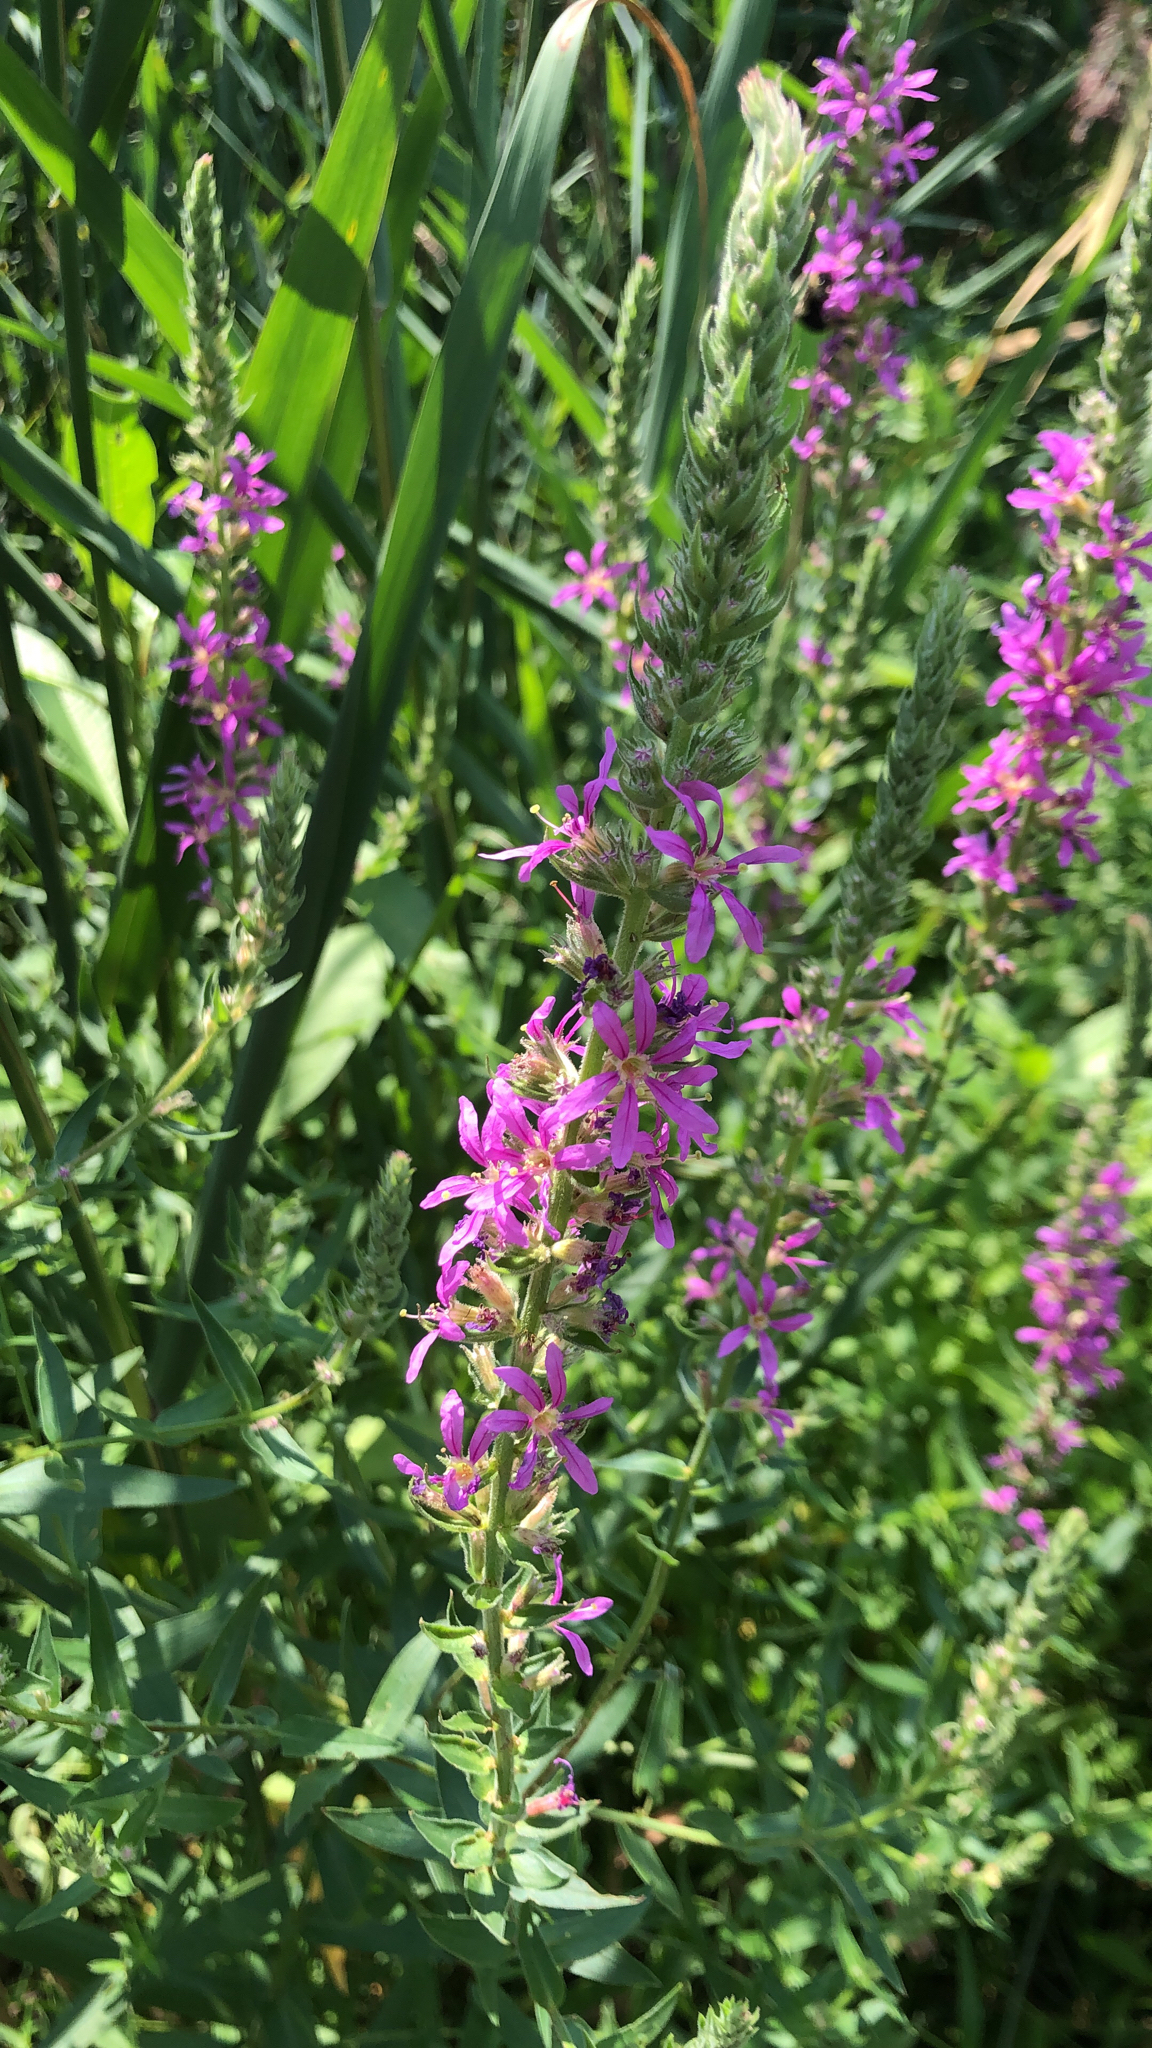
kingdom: Plantae
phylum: Tracheophyta
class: Magnoliopsida
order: Myrtales
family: Lythraceae
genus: Lythrum
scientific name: Lythrum salicaria
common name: Purple loosestrife
